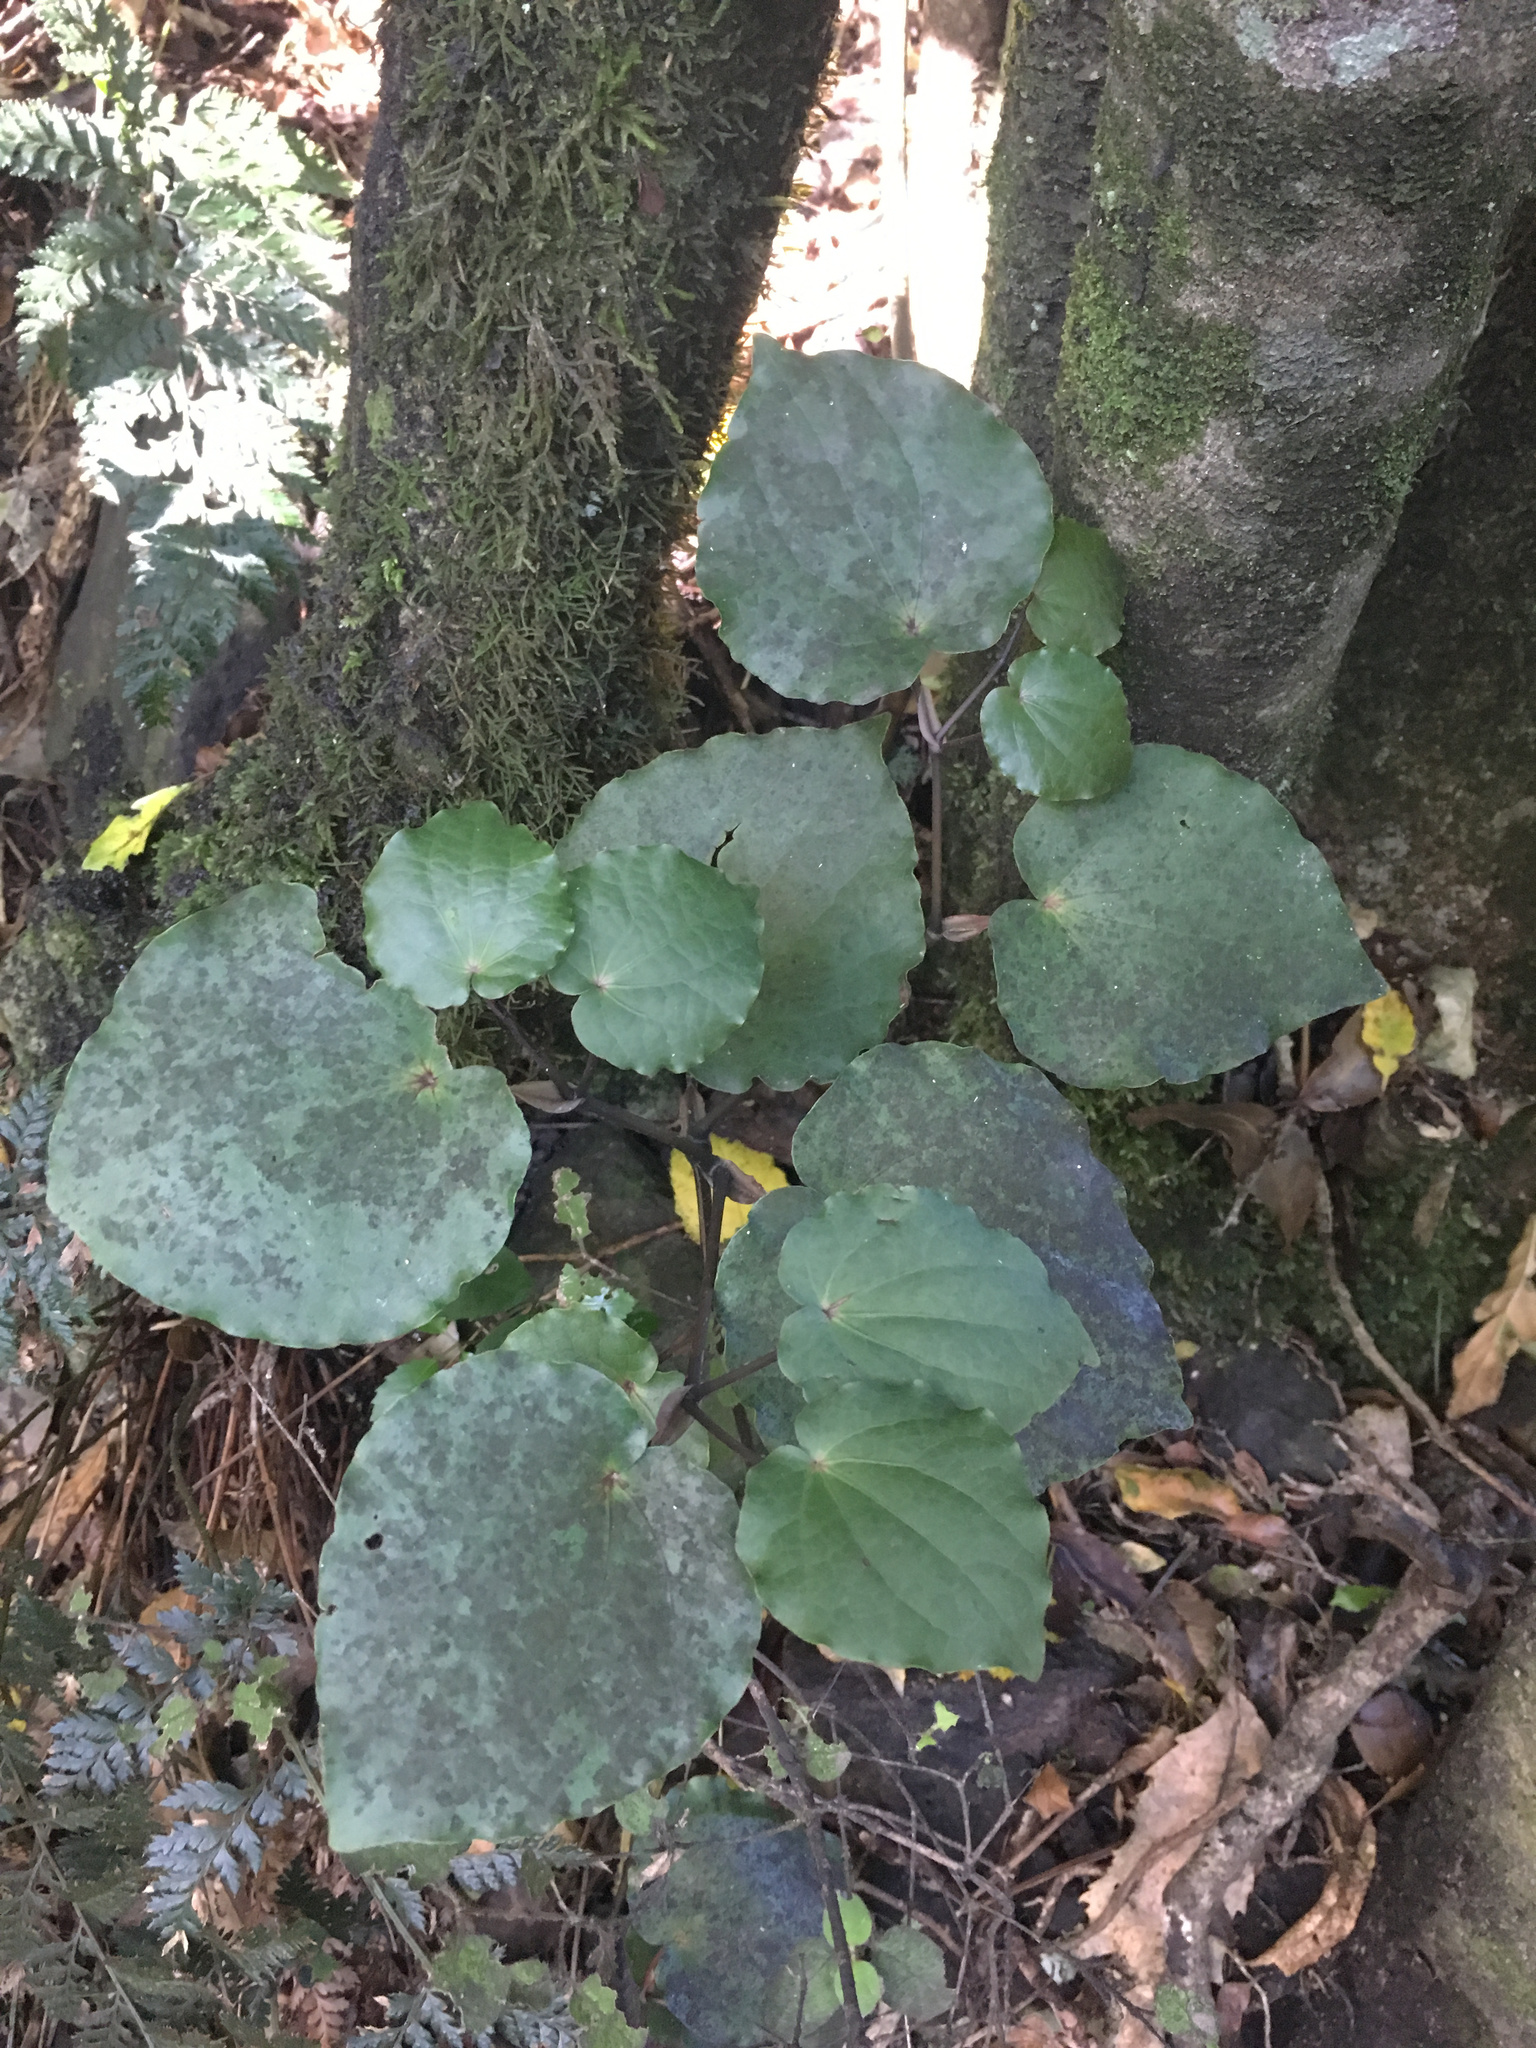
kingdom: Plantae
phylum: Tracheophyta
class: Magnoliopsida
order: Piperales
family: Piperaceae
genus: Macropiper
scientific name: Macropiper excelsum
